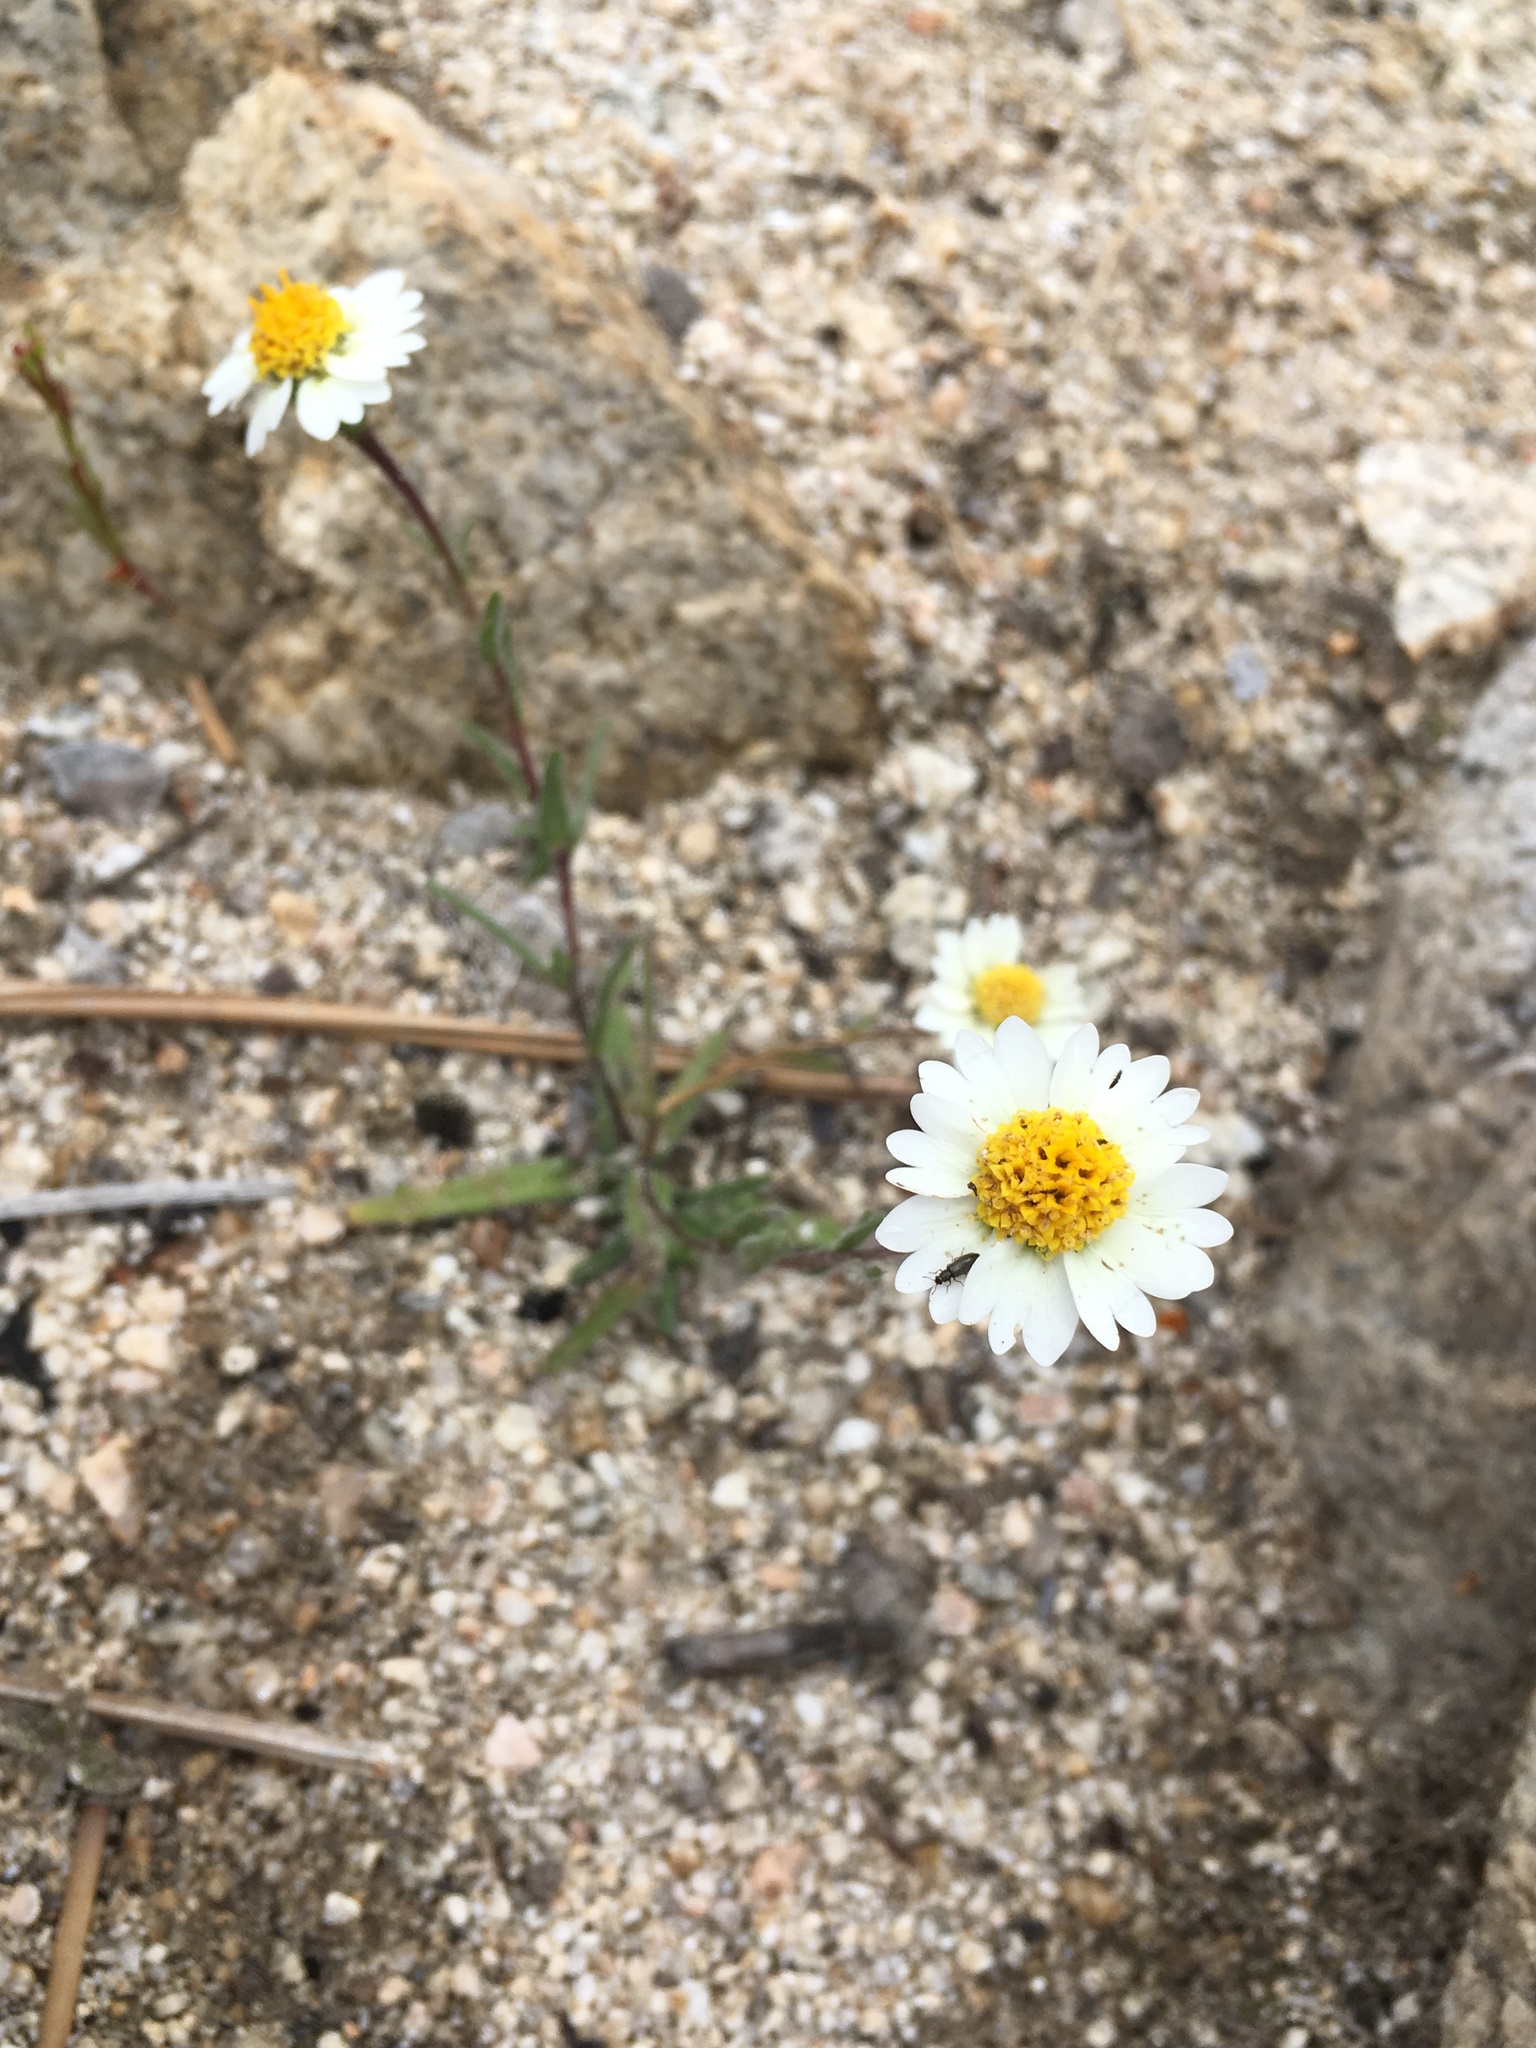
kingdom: Plantae
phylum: Tracheophyta
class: Magnoliopsida
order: Asterales
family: Asteraceae
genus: Layia
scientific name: Layia glandulosa
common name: White layia
